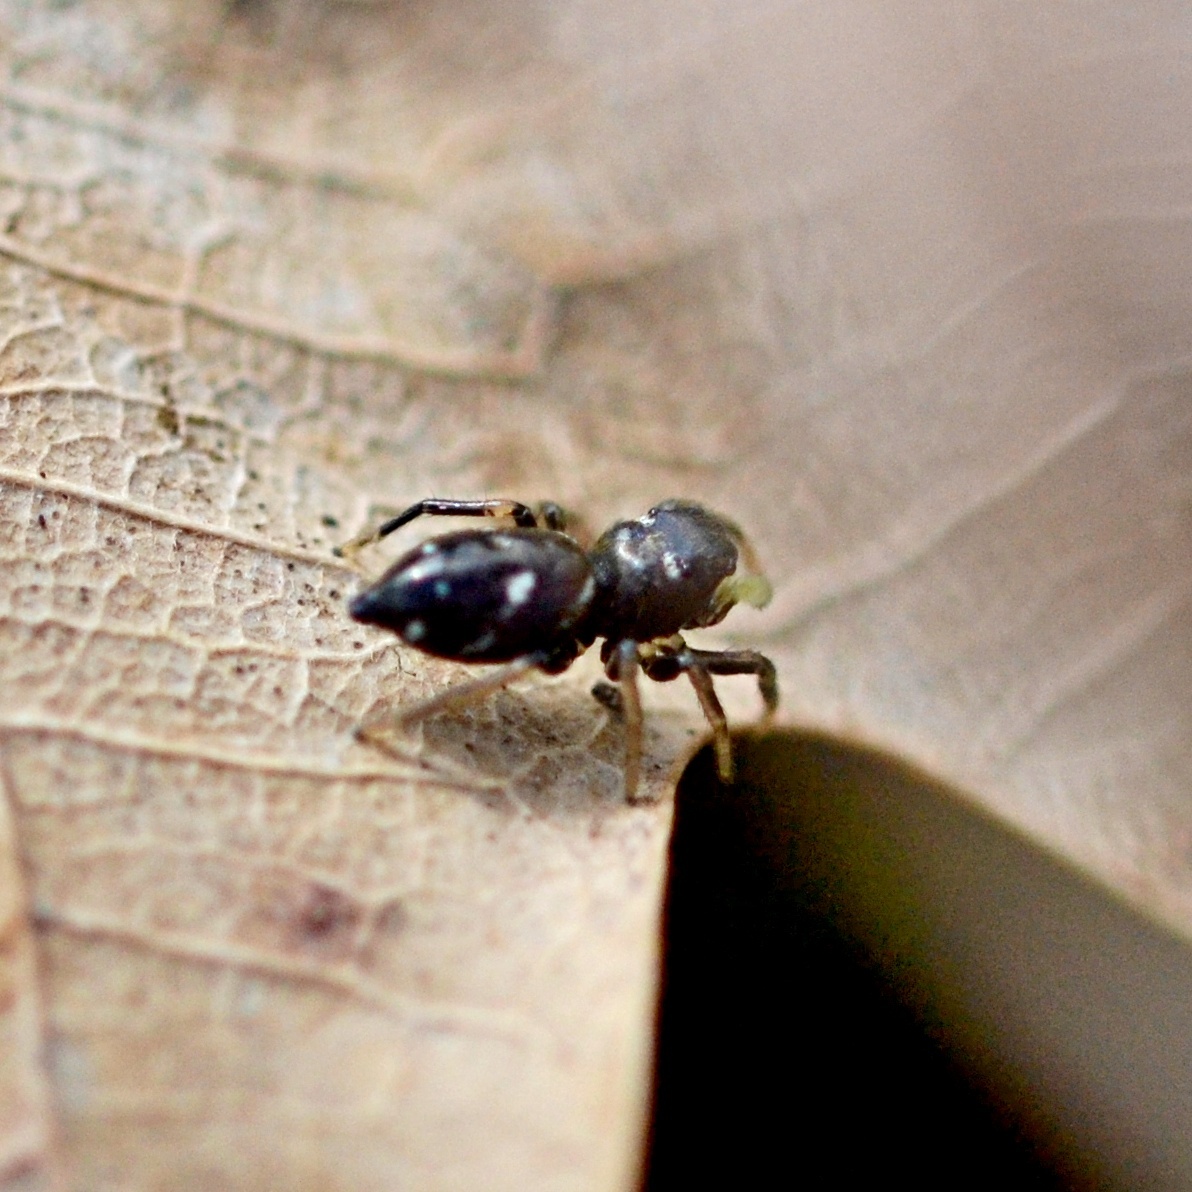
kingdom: Animalia
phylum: Arthropoda
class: Arachnida
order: Araneae
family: Salticidae
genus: Heliophanus
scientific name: Heliophanus cupreus
